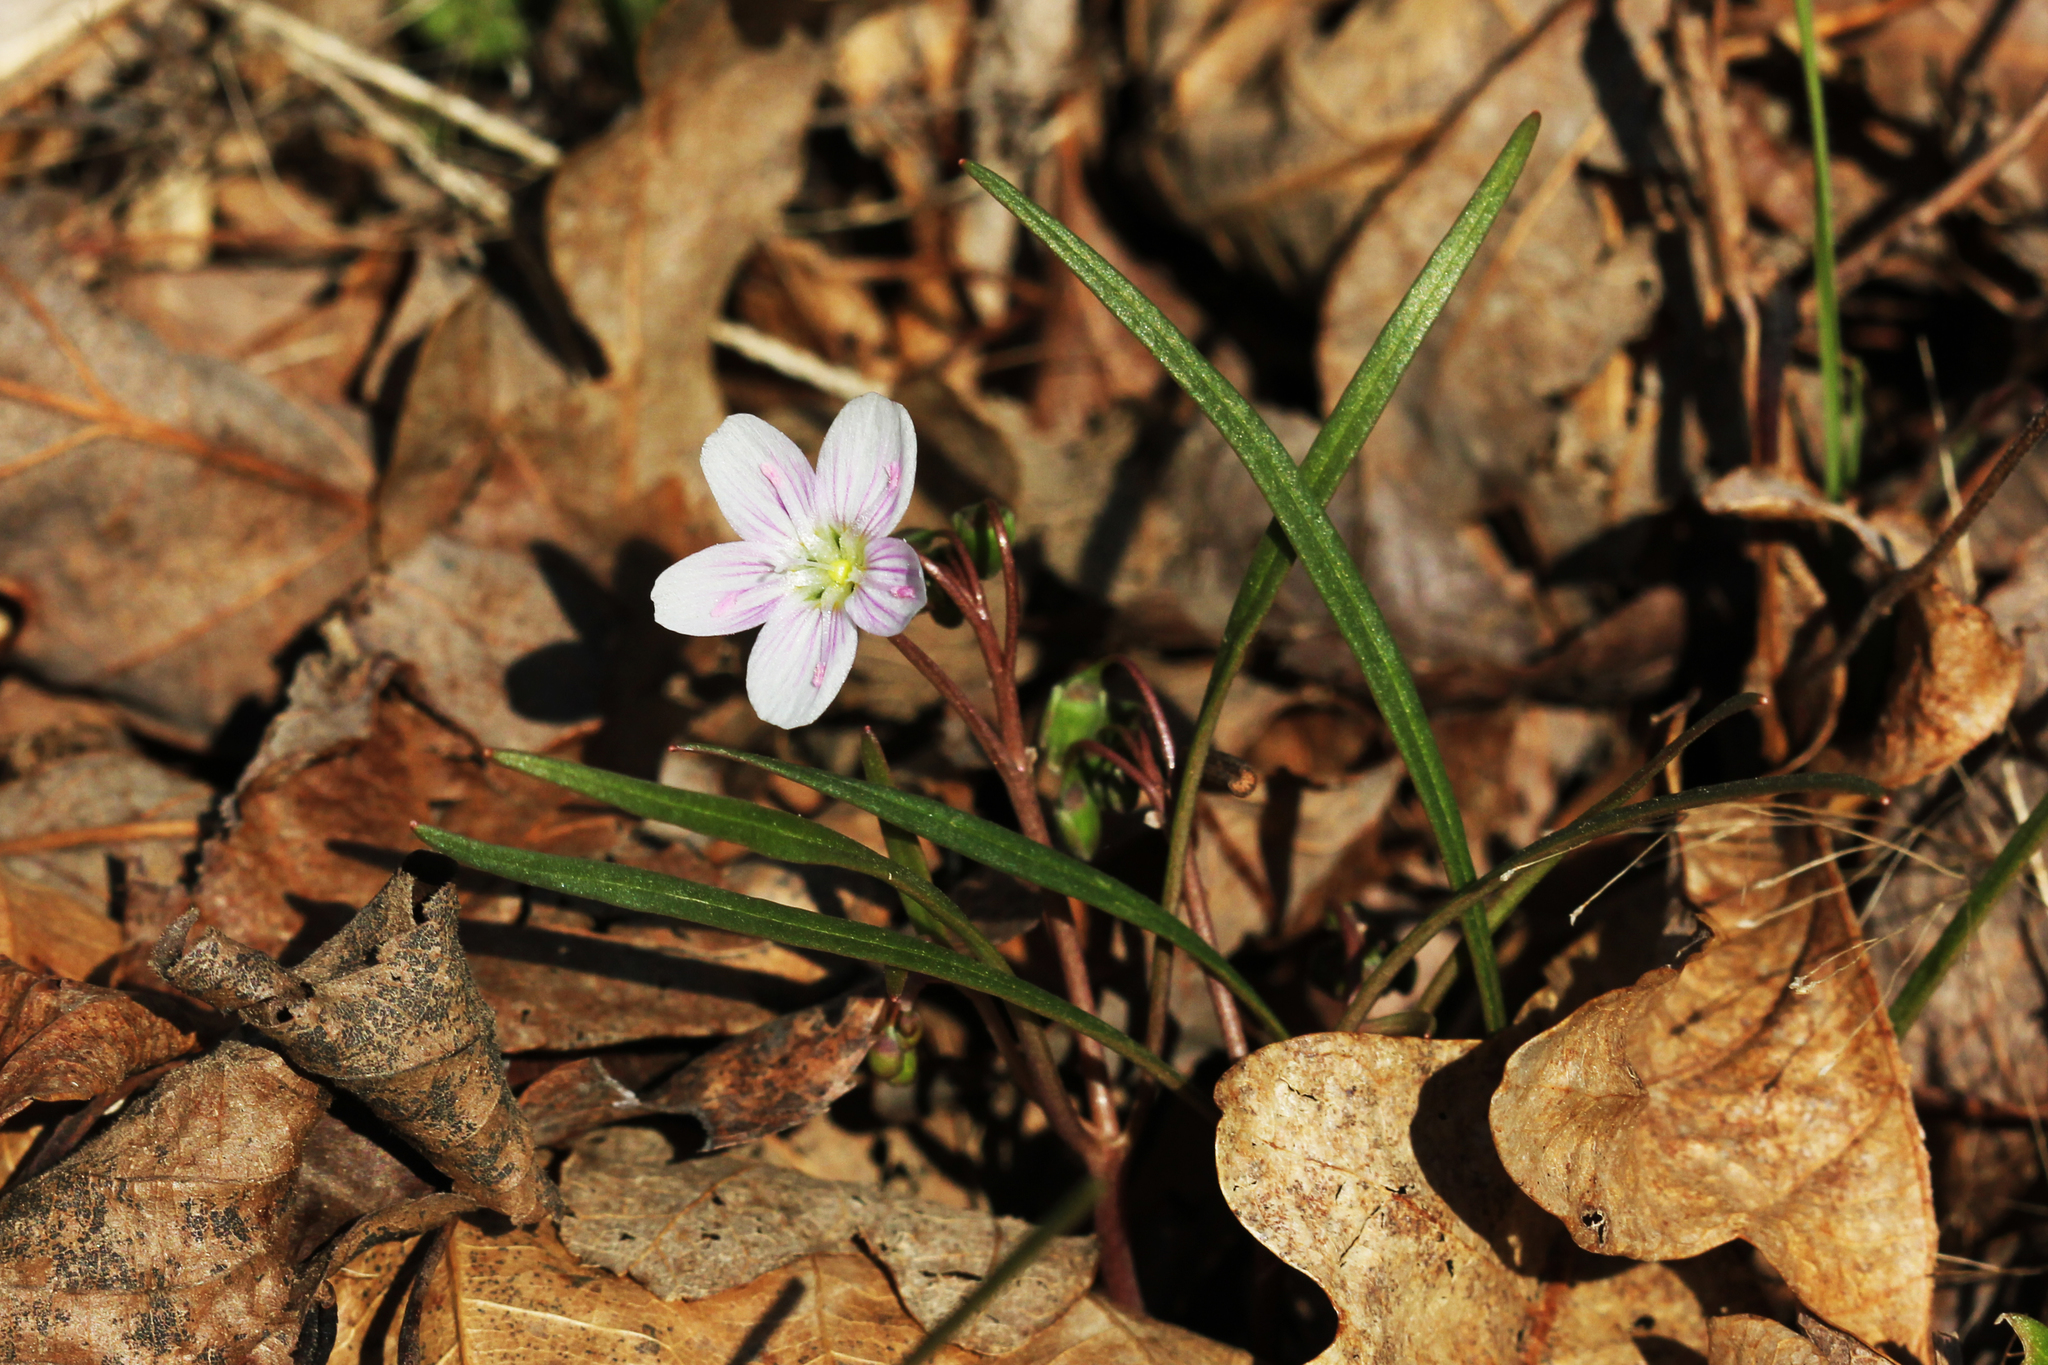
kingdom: Plantae
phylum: Tracheophyta
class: Magnoliopsida
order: Caryophyllales
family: Montiaceae
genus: Claytonia
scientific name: Claytonia virginica
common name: Virginia springbeauty
